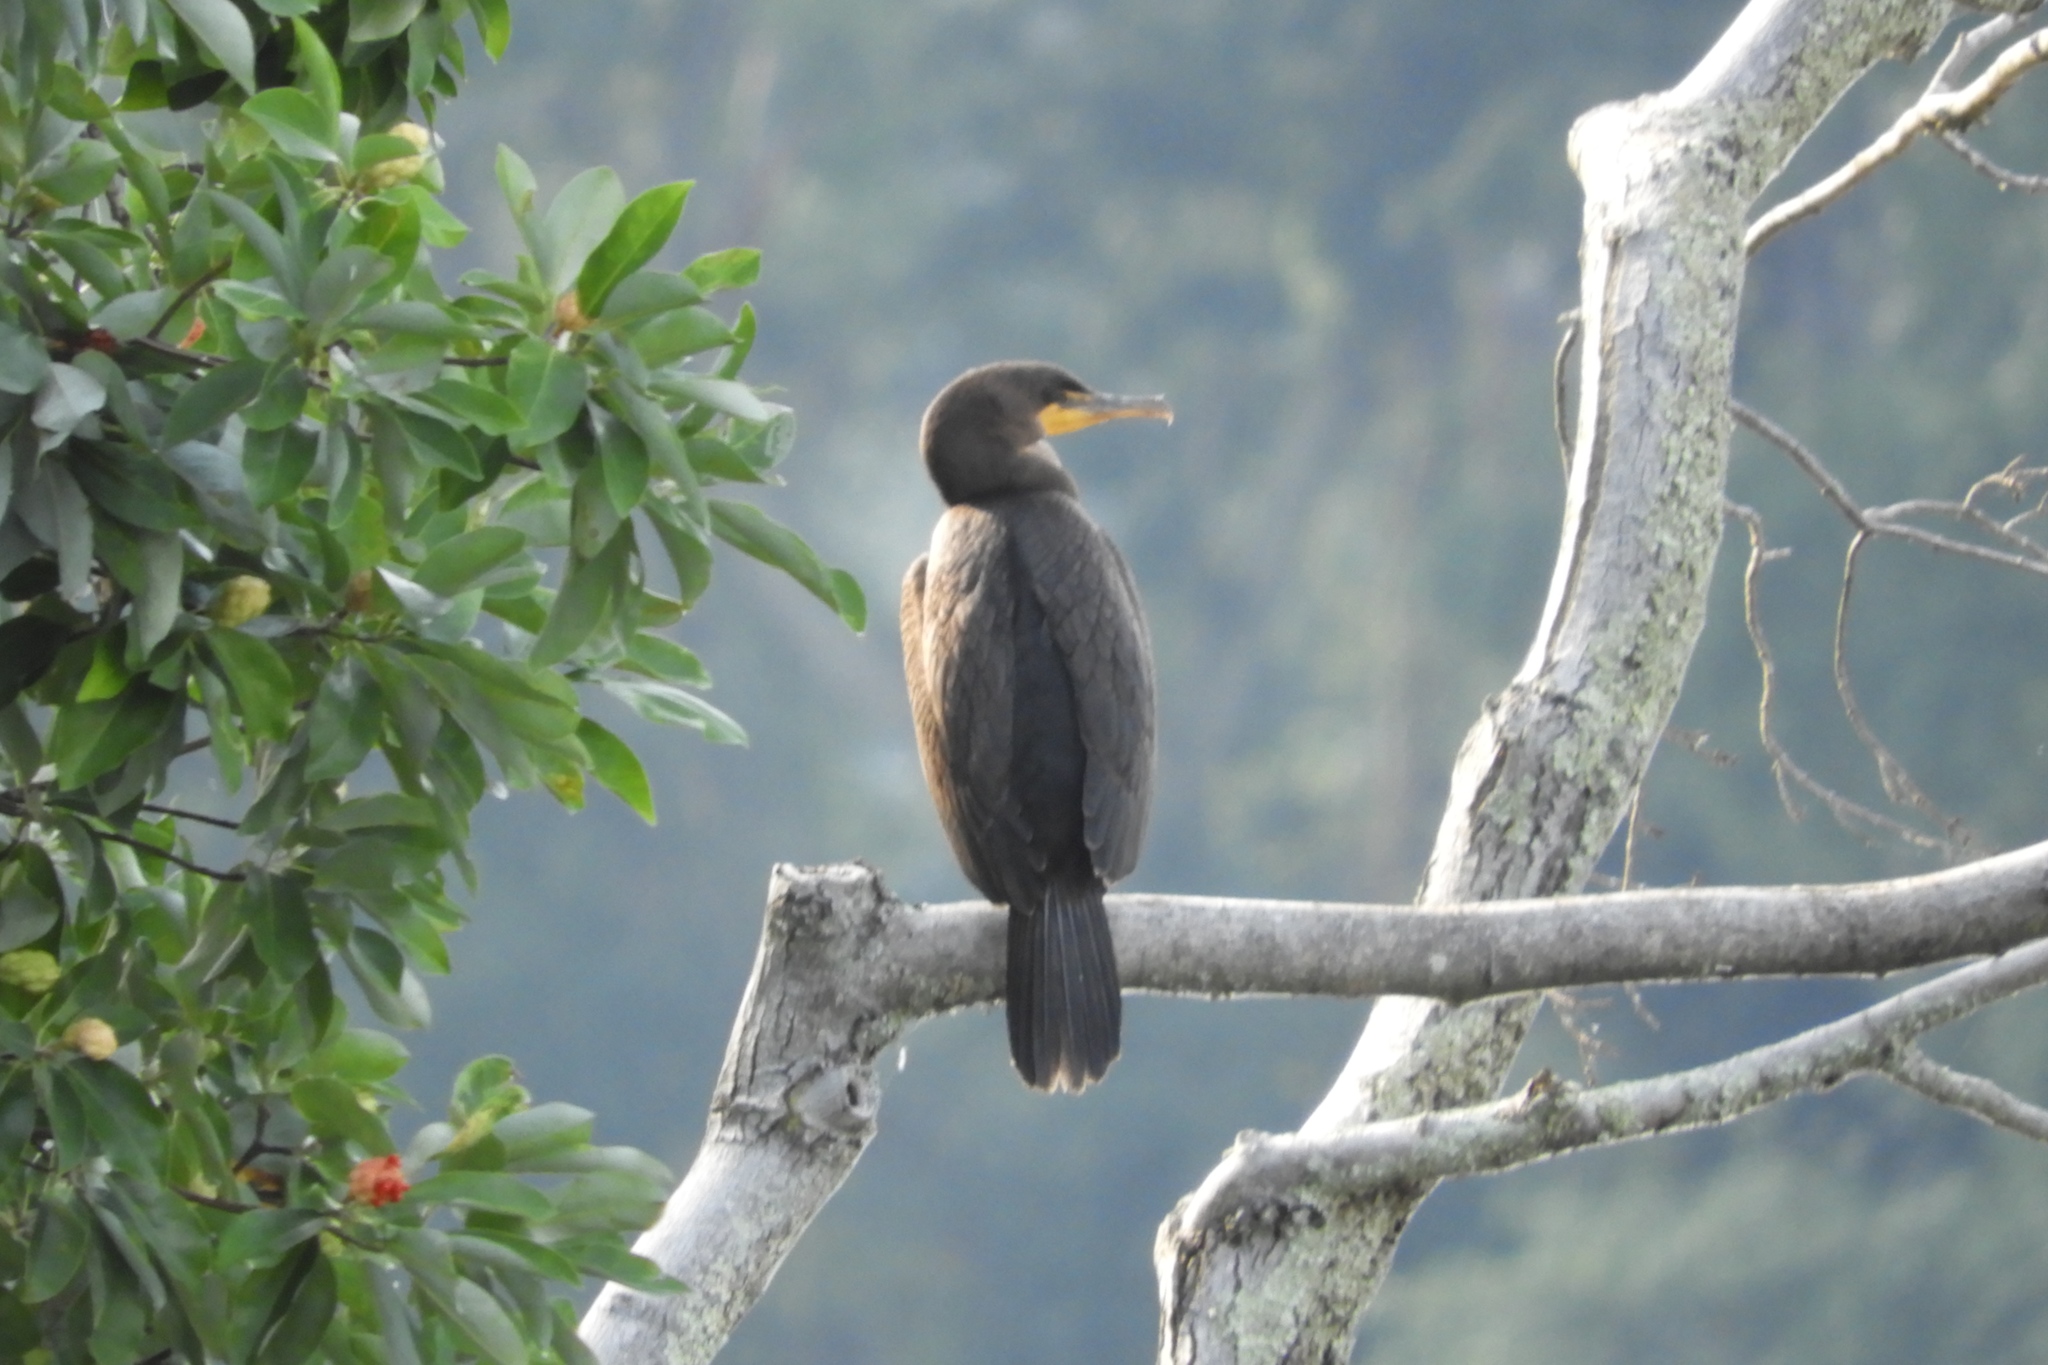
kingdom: Animalia
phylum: Chordata
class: Aves
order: Suliformes
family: Phalacrocoracidae
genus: Phalacrocorax
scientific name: Phalacrocorax auritus
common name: Double-crested cormorant
